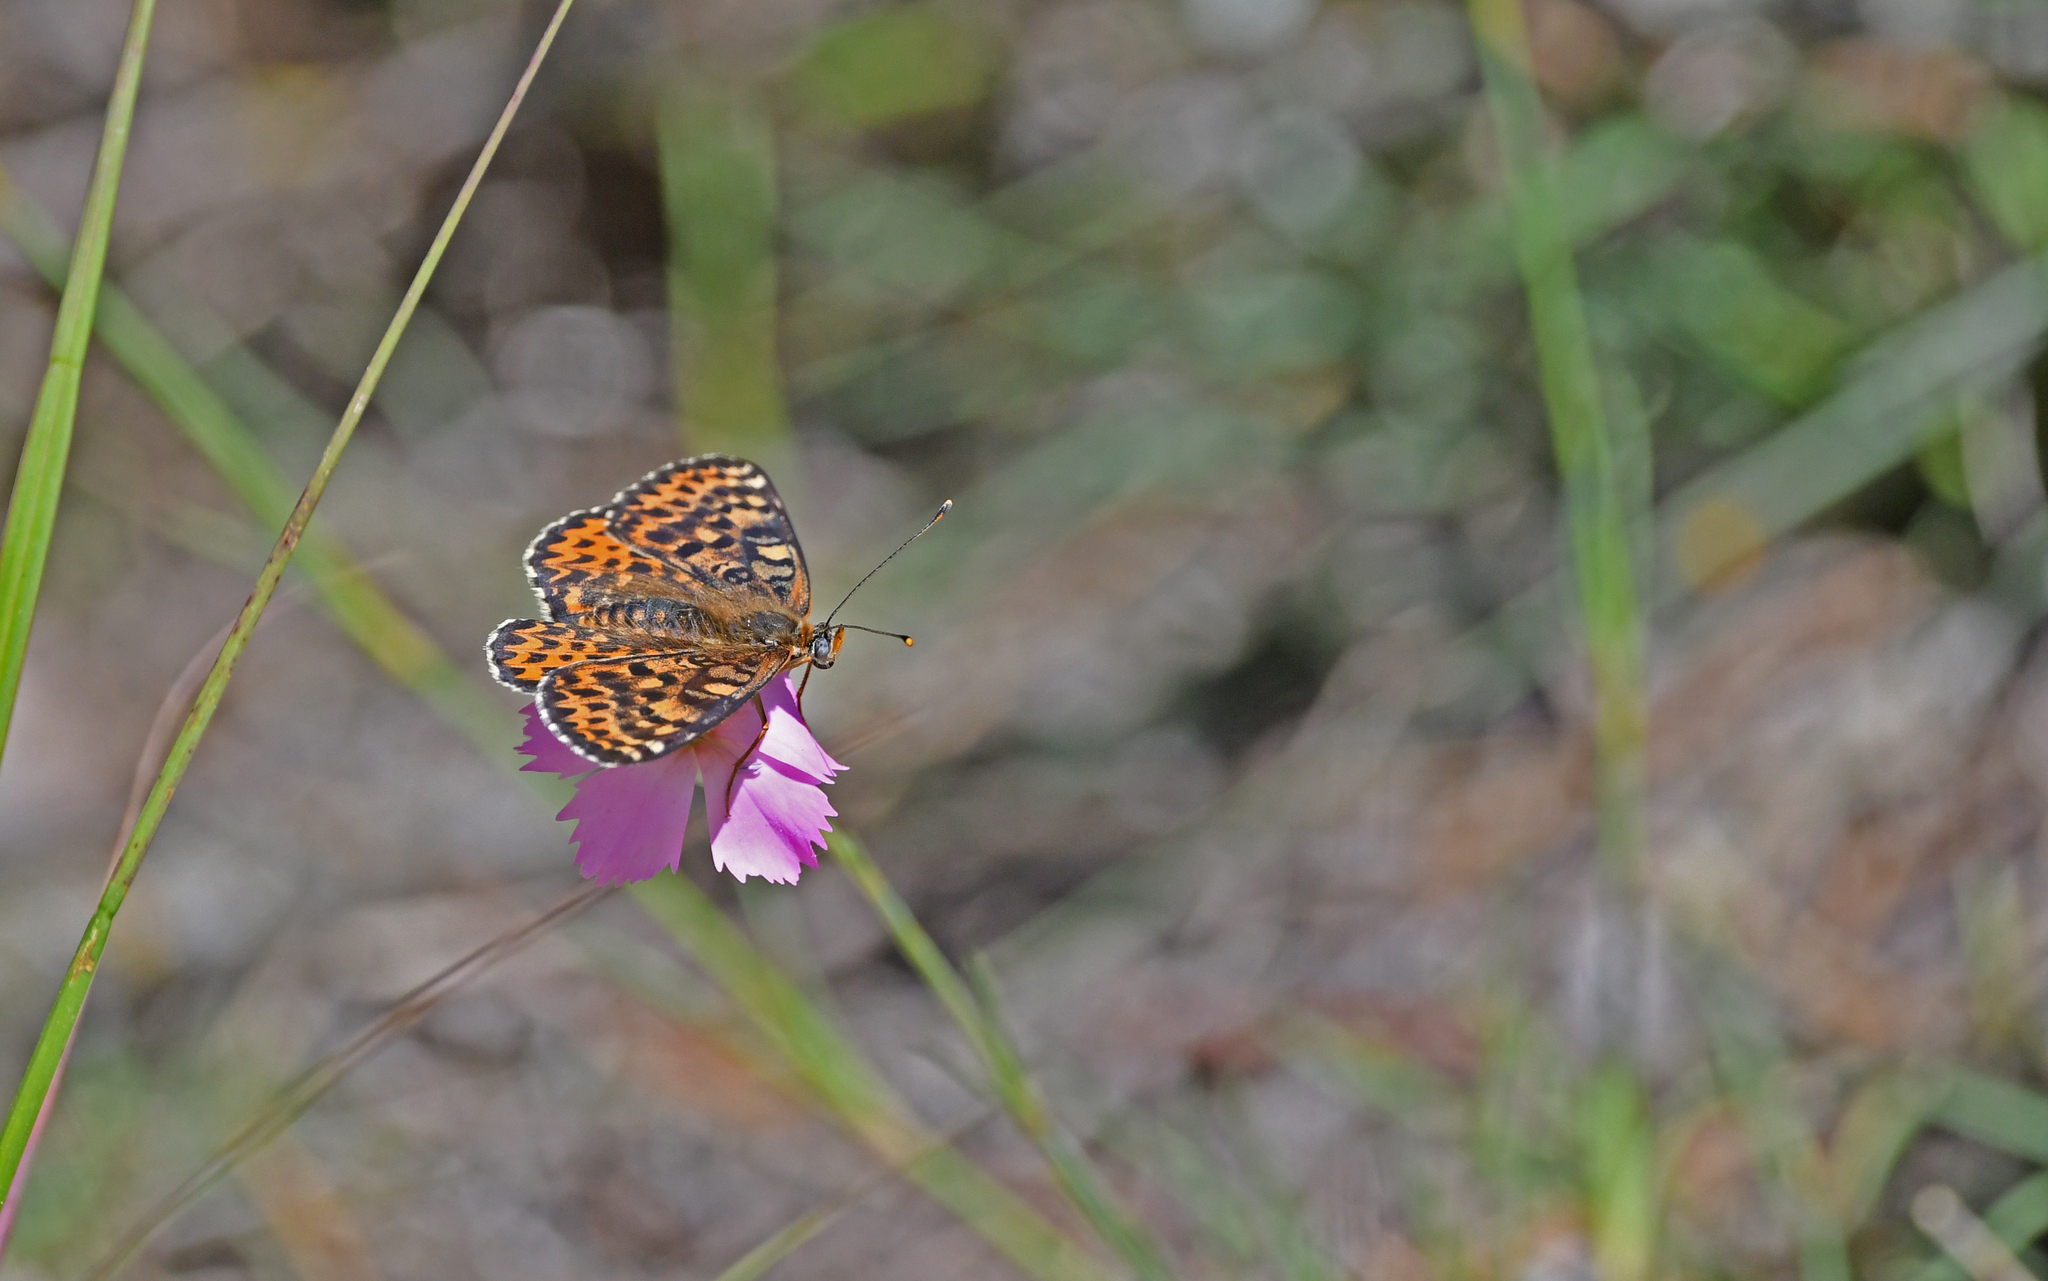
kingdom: Animalia
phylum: Arthropoda
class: Insecta
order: Lepidoptera
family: Nymphalidae
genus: Melitaea
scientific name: Melitaea didyma
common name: Spotted fritillary
